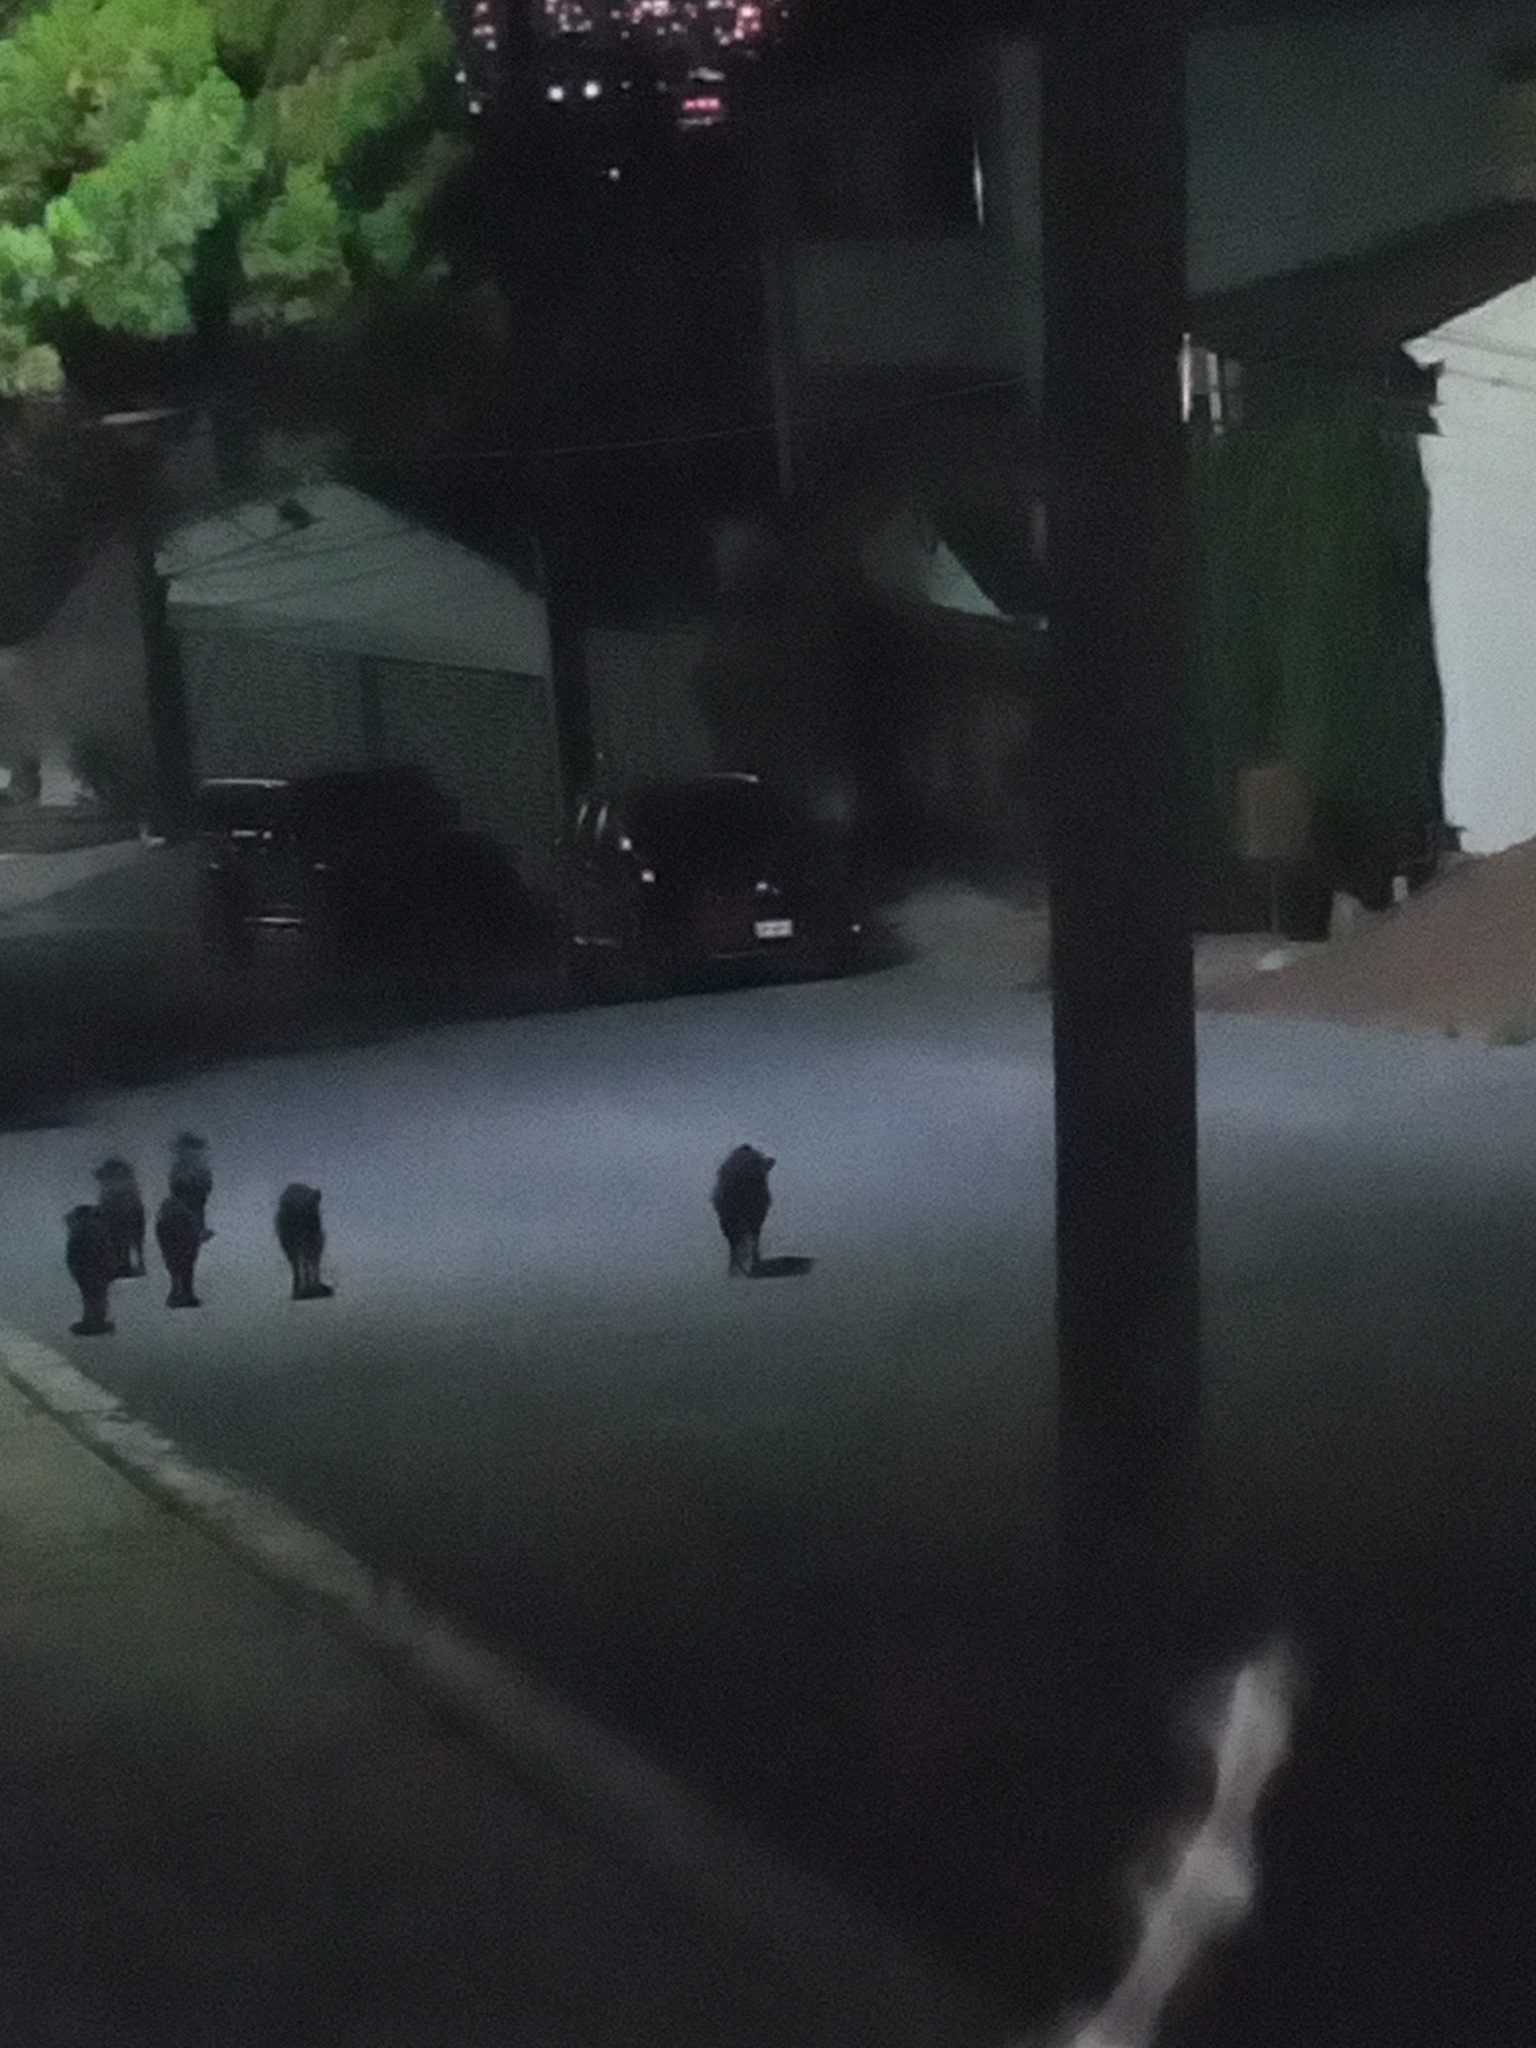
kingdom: Animalia
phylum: Chordata
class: Mammalia
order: Artiodactyla
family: Tayassuidae
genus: Pecari
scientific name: Pecari tajacu
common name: Collared peccary
